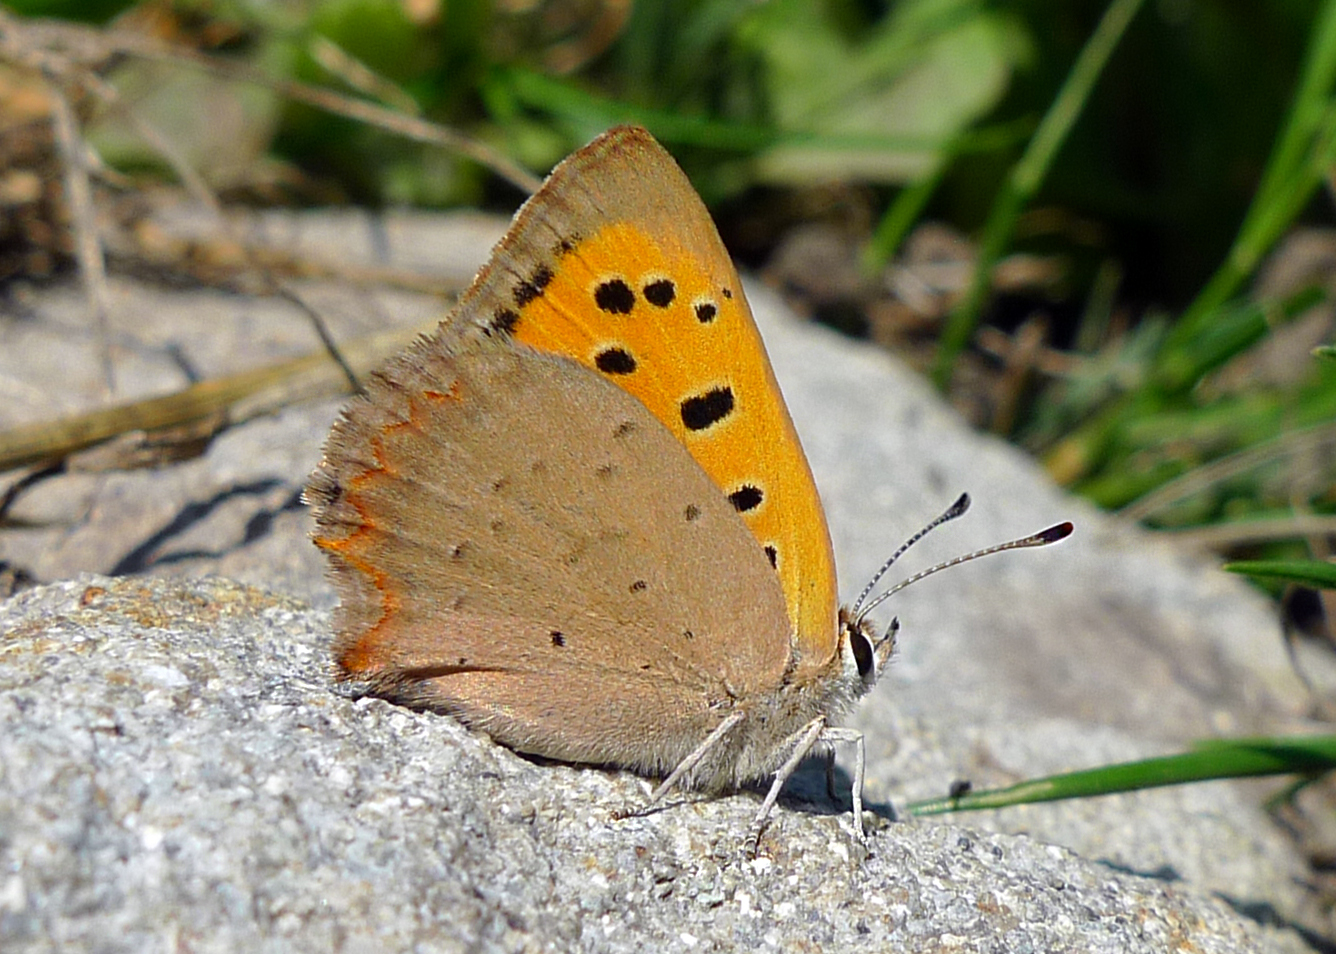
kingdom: Animalia
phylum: Arthropoda
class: Insecta
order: Lepidoptera
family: Lycaenidae
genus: Lycaena
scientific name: Lycaena phlaeas
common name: Small copper
